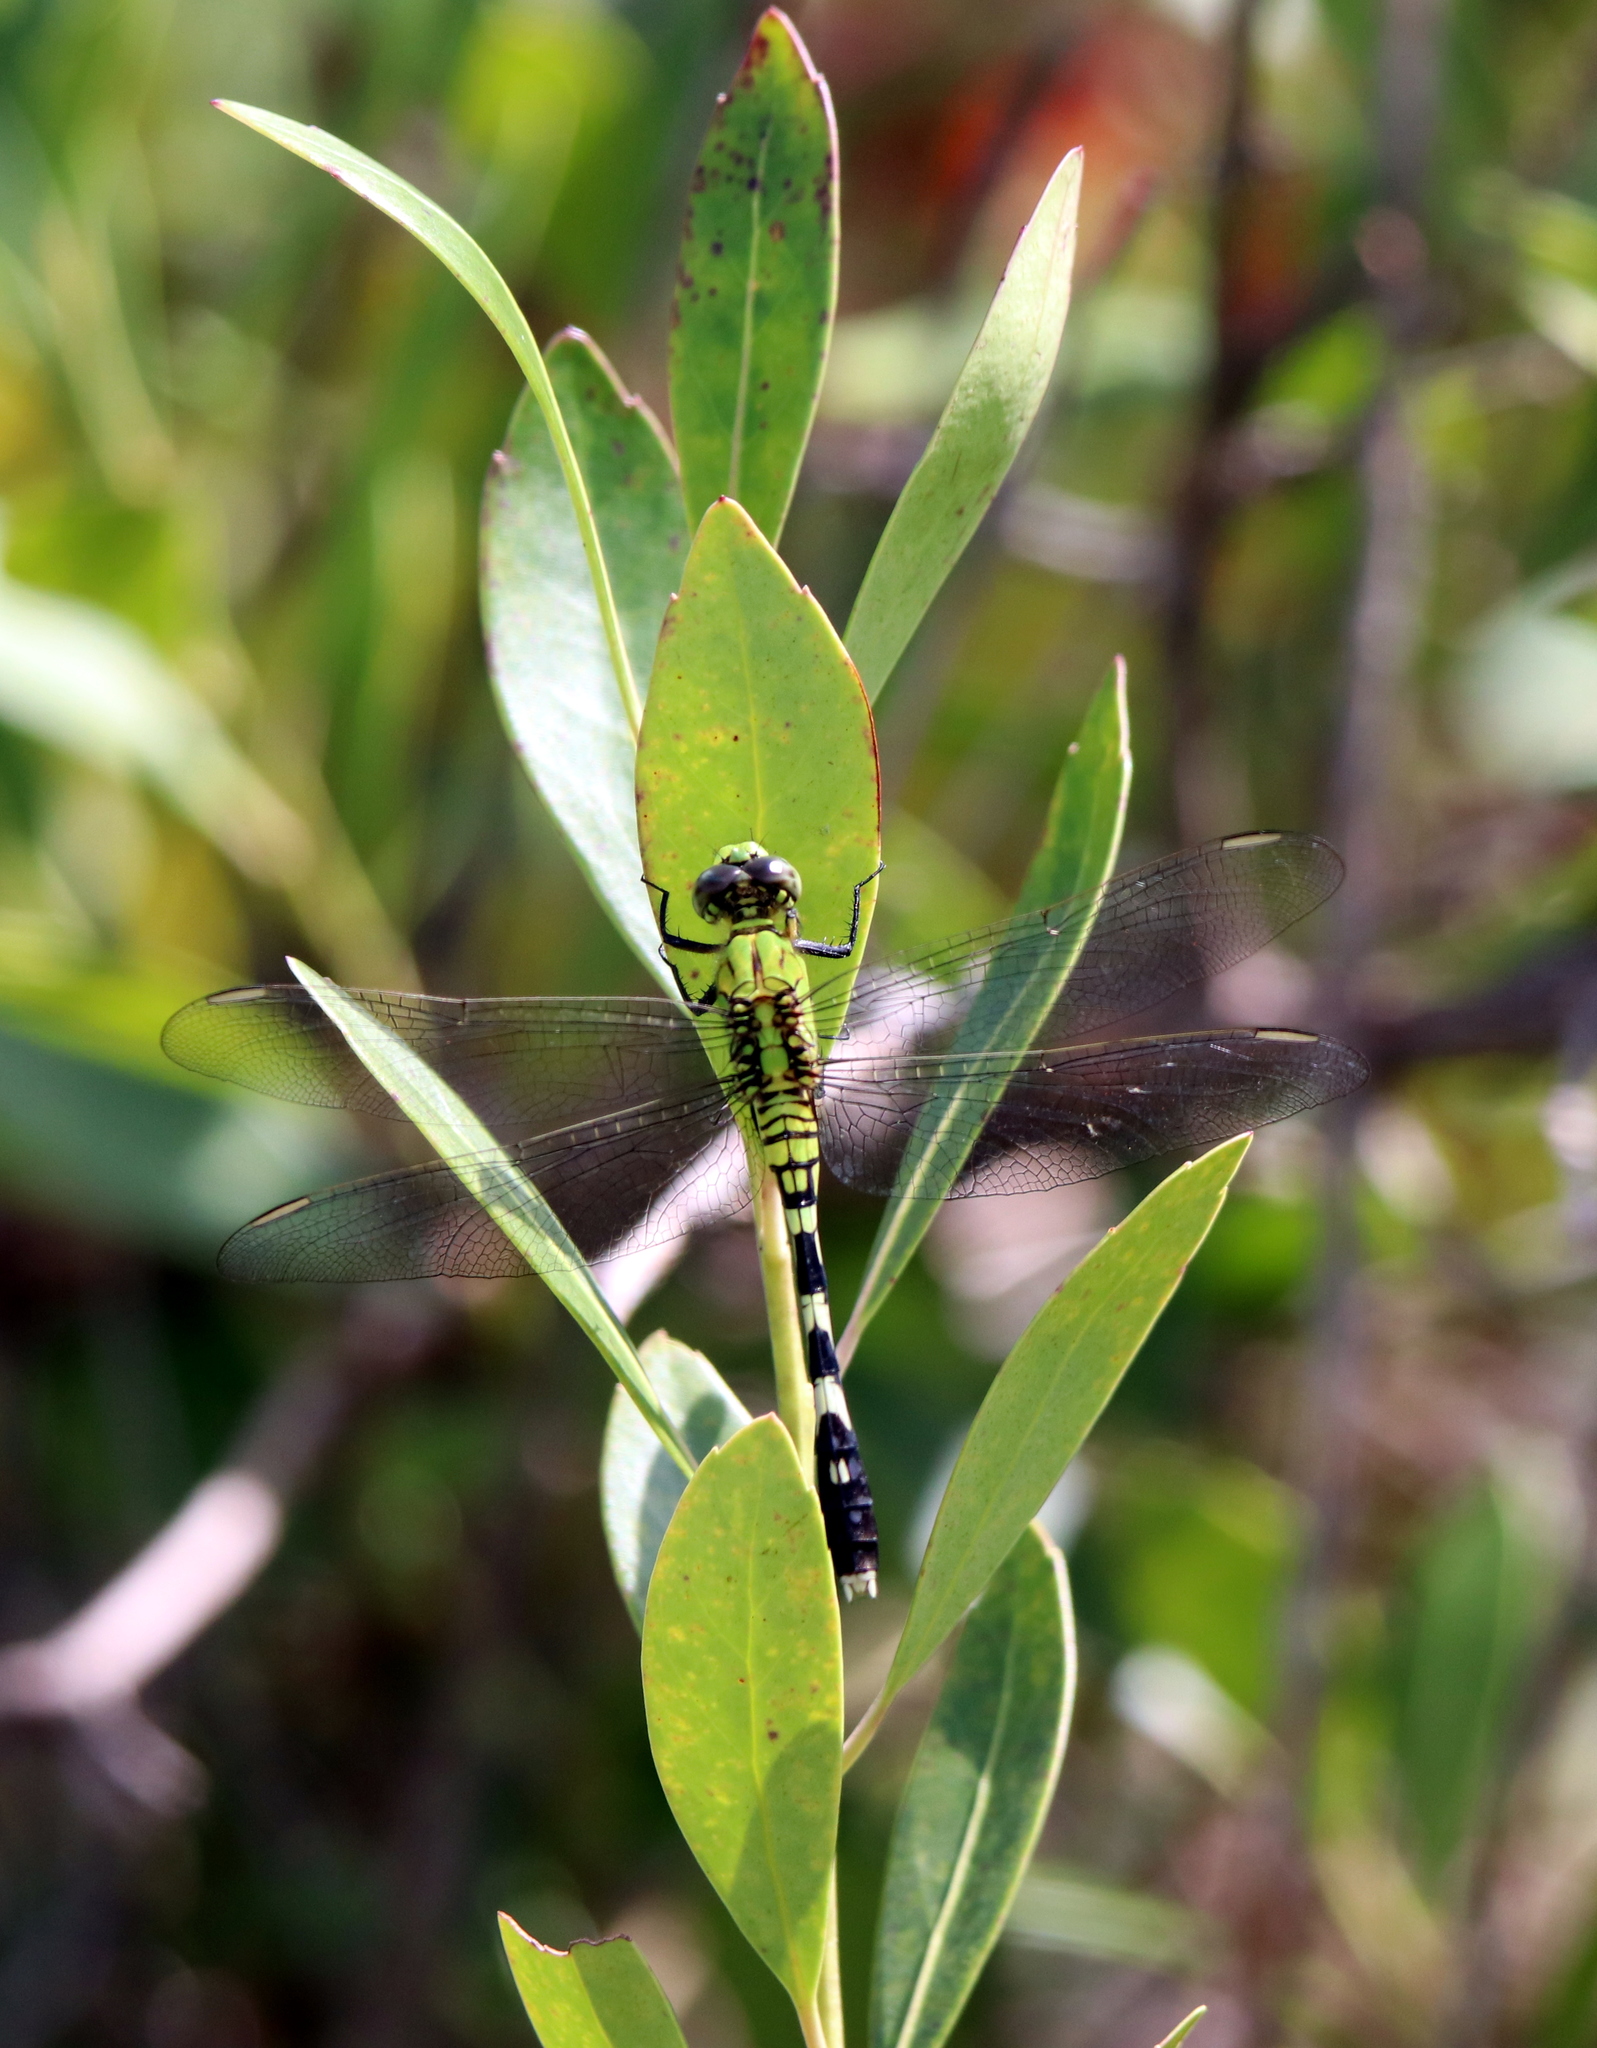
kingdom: Animalia
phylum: Arthropoda
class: Insecta
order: Odonata
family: Libellulidae
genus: Erythemis
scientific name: Erythemis simplicicollis
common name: Eastern pondhawk
